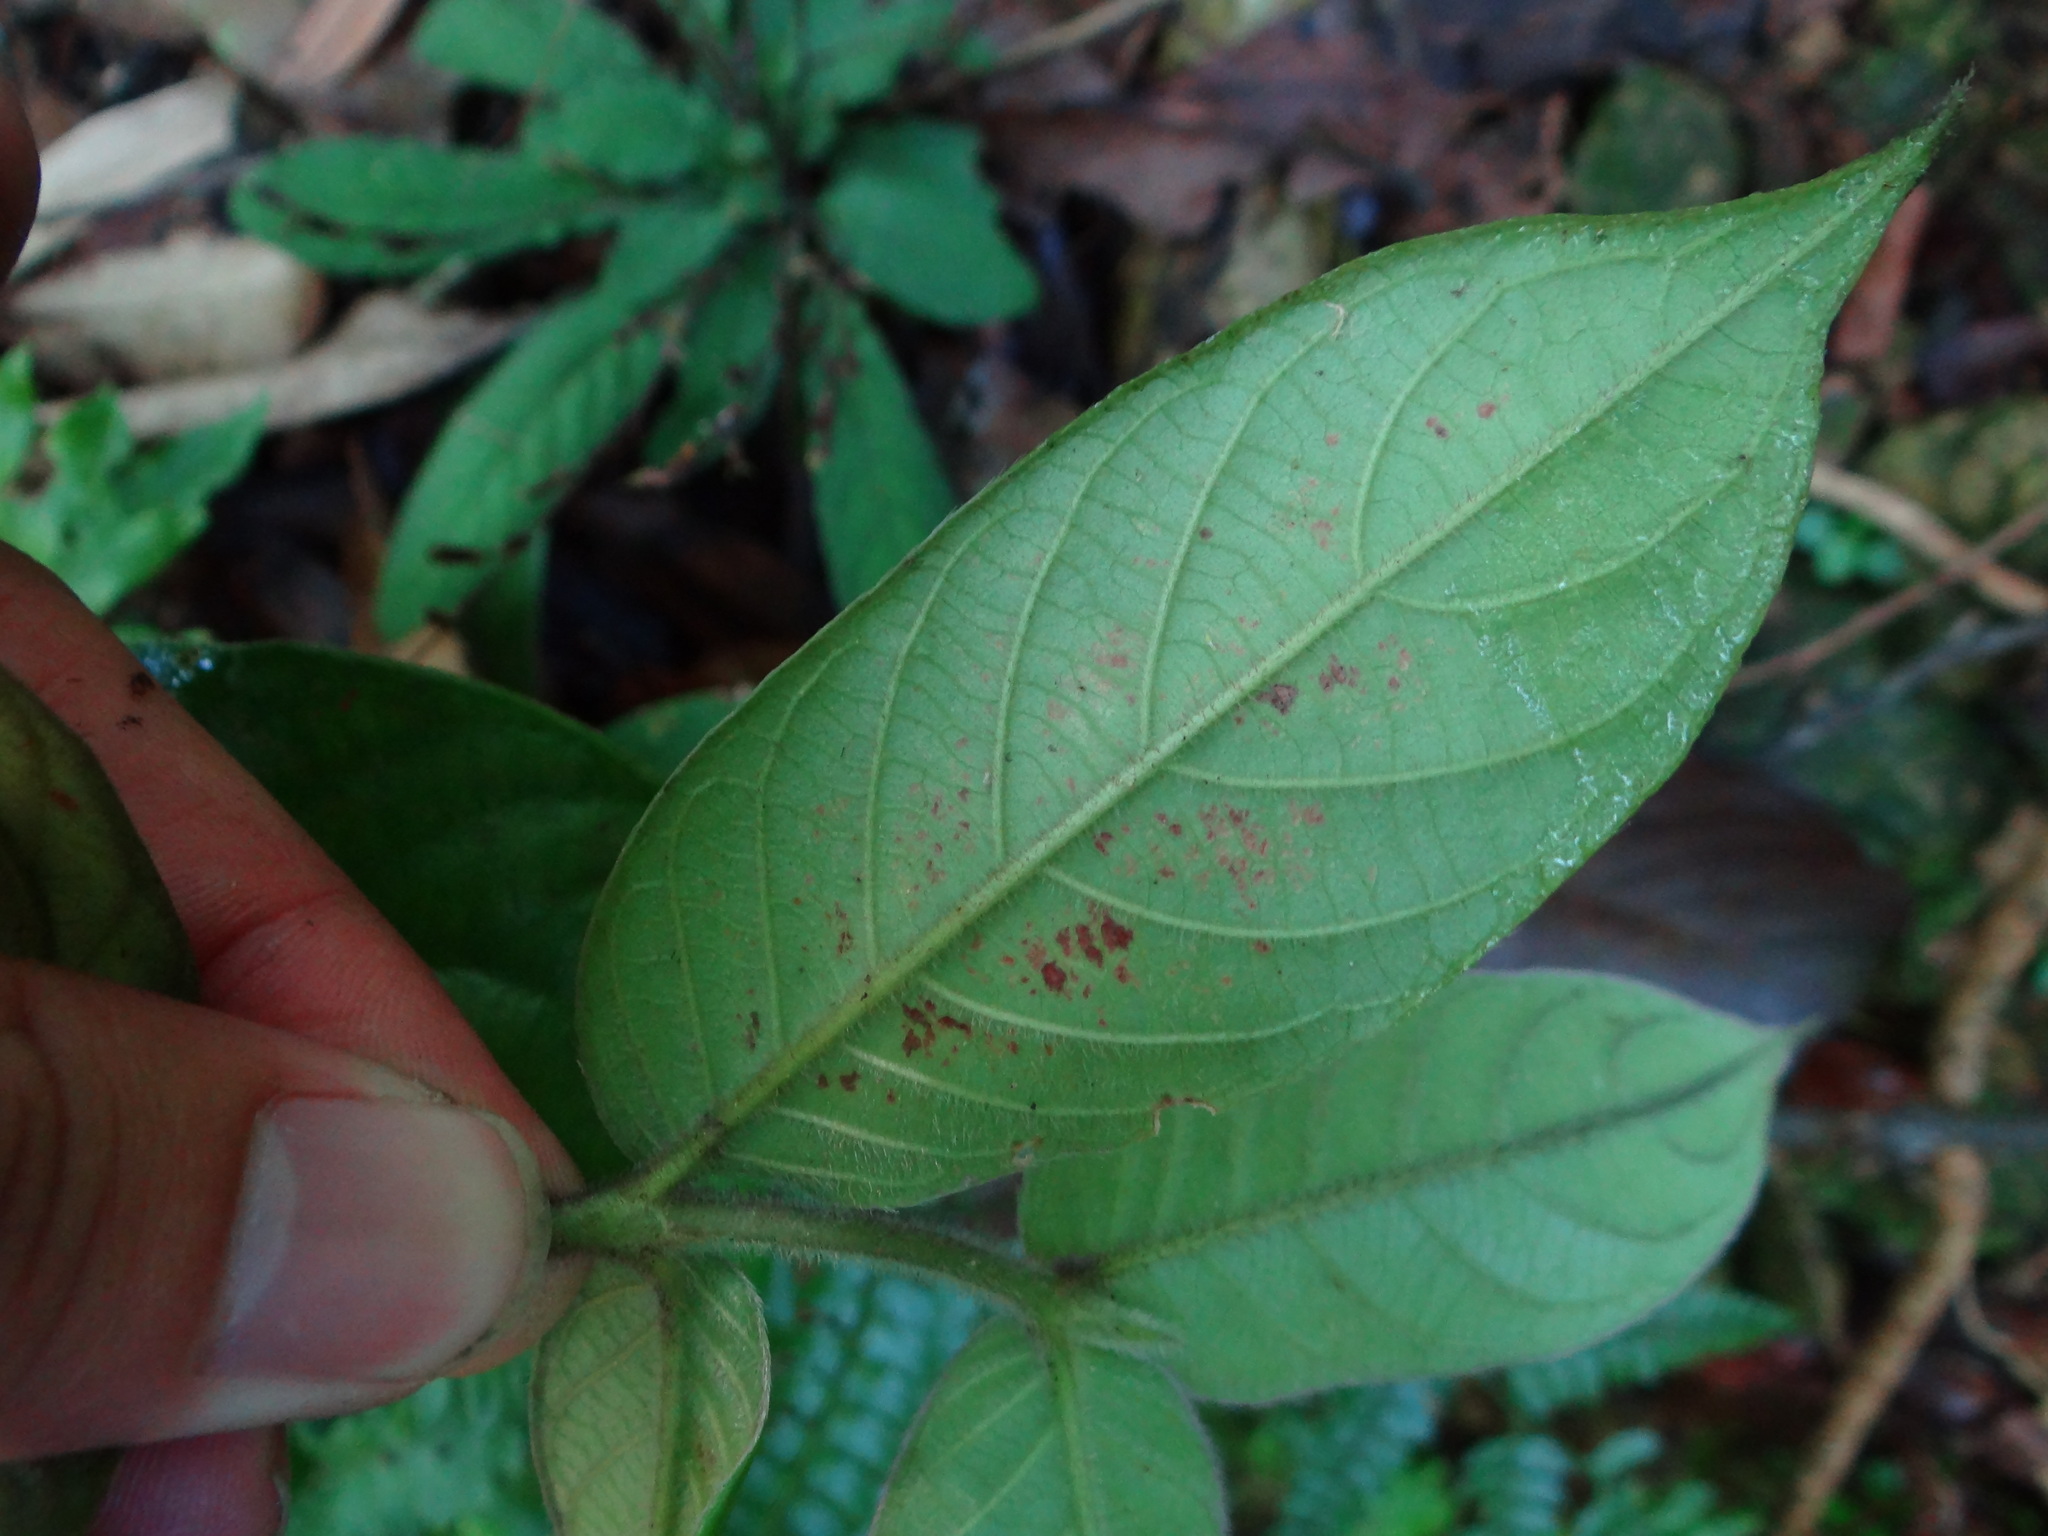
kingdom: Plantae
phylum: Tracheophyta
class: Magnoliopsida
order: Gentianales
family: Rubiaceae
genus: Lasianthus
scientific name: Lasianthus attenuatus
